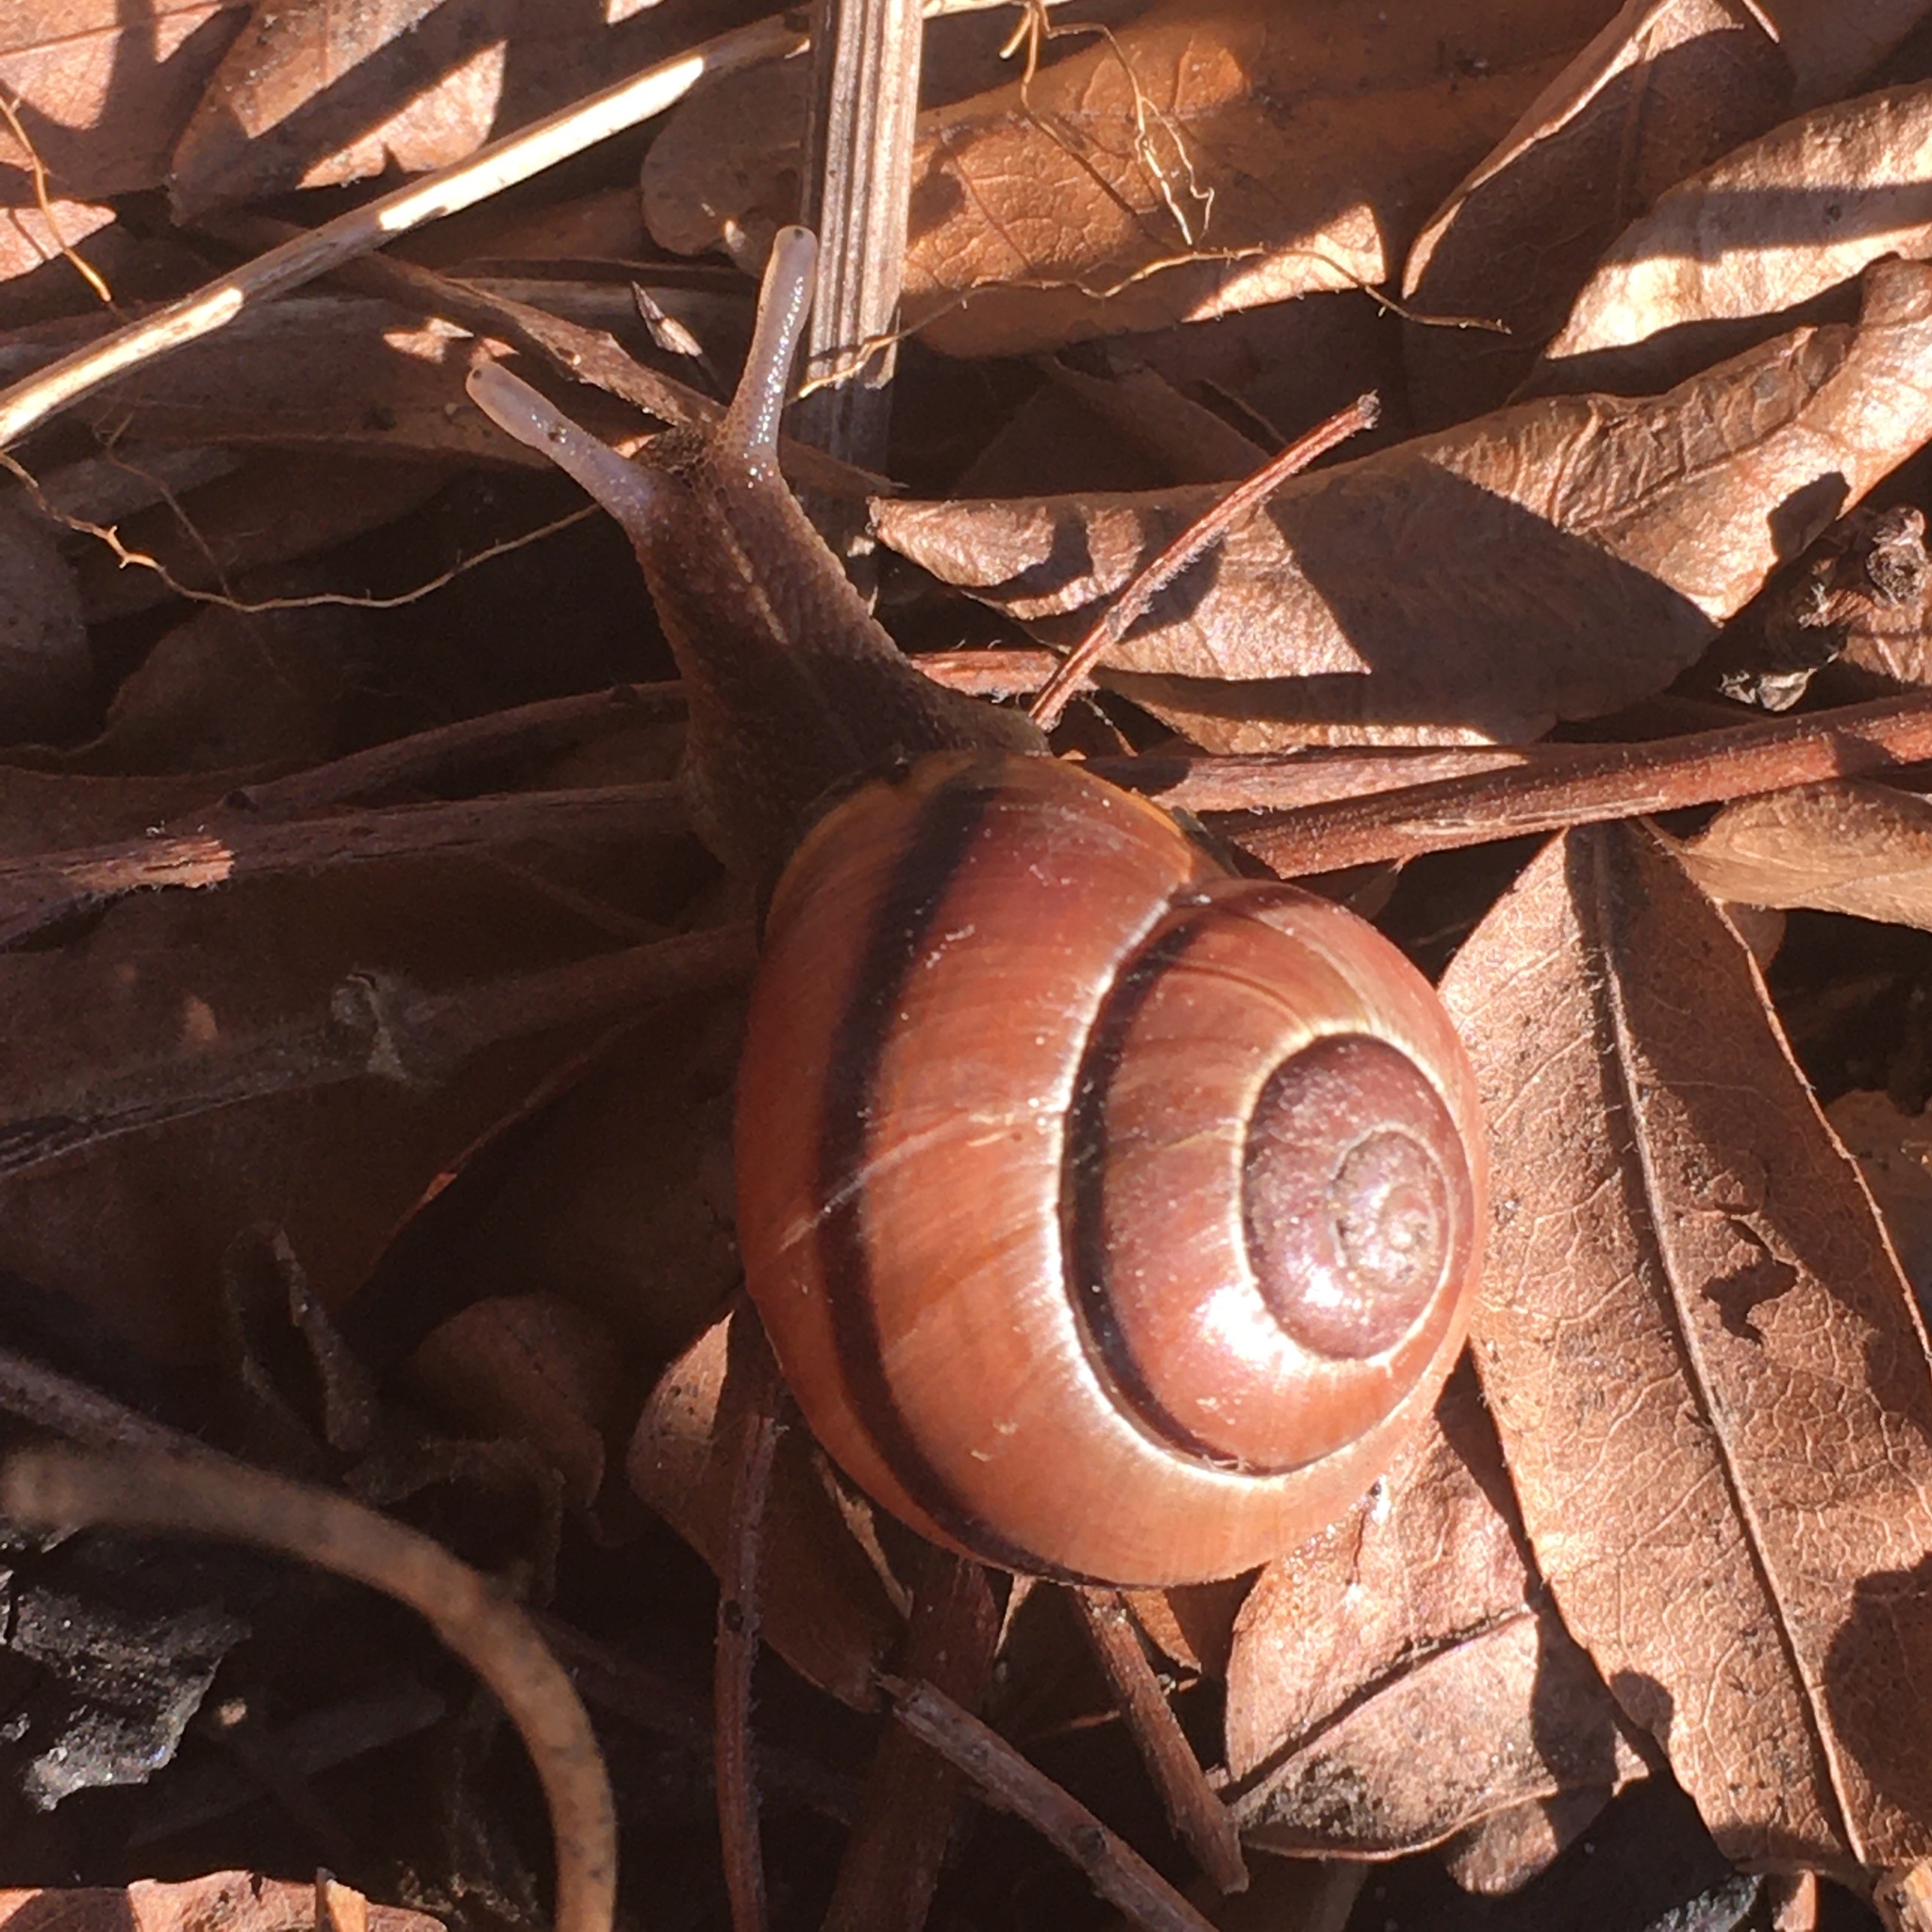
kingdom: Animalia
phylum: Mollusca
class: Gastropoda
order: Stylommatophora
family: Helicidae
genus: Cepaea
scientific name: Cepaea nemoralis
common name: Grovesnail
